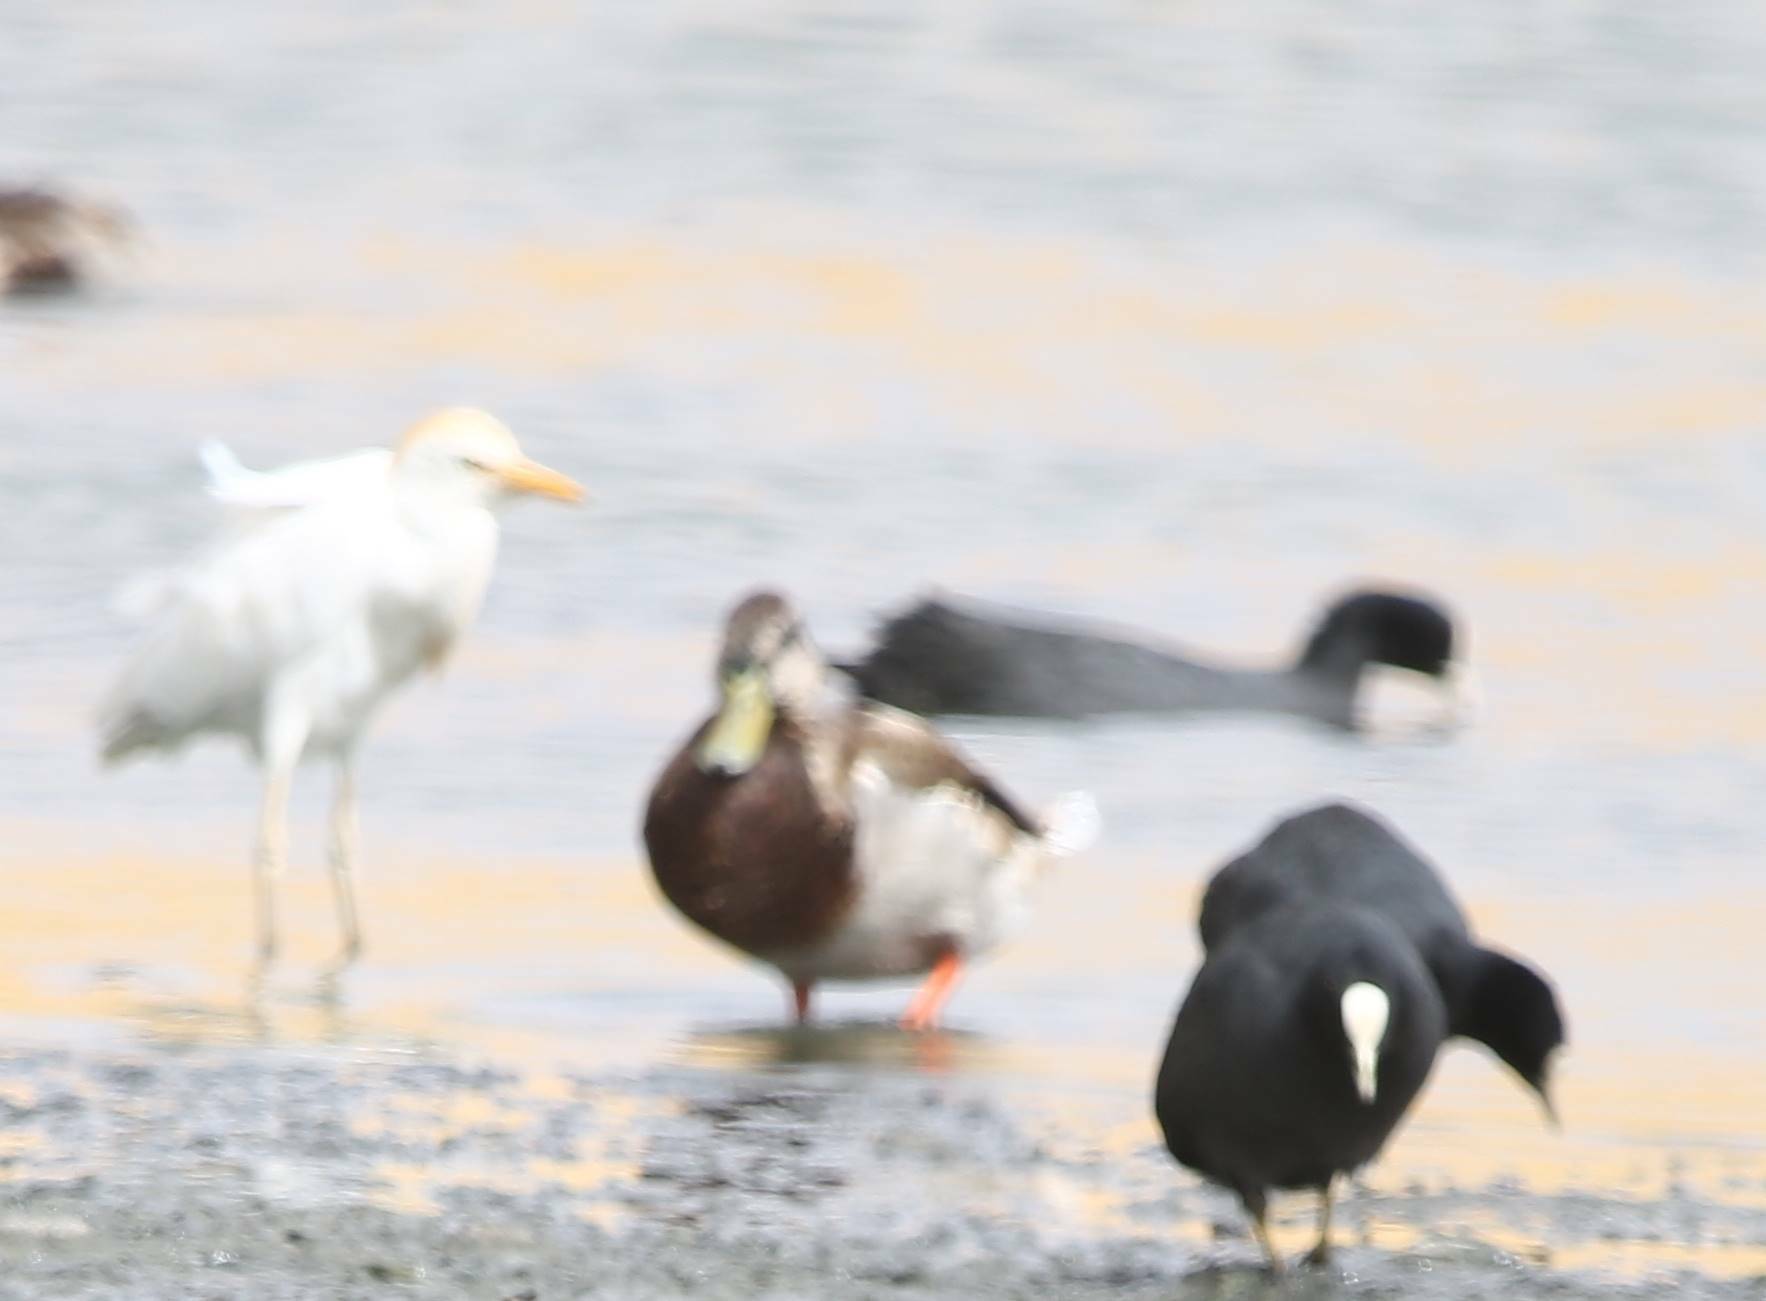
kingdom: Animalia
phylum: Chordata
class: Aves
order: Anseriformes
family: Anatidae
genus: Anas
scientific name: Anas platyrhynchos
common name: Mallard
